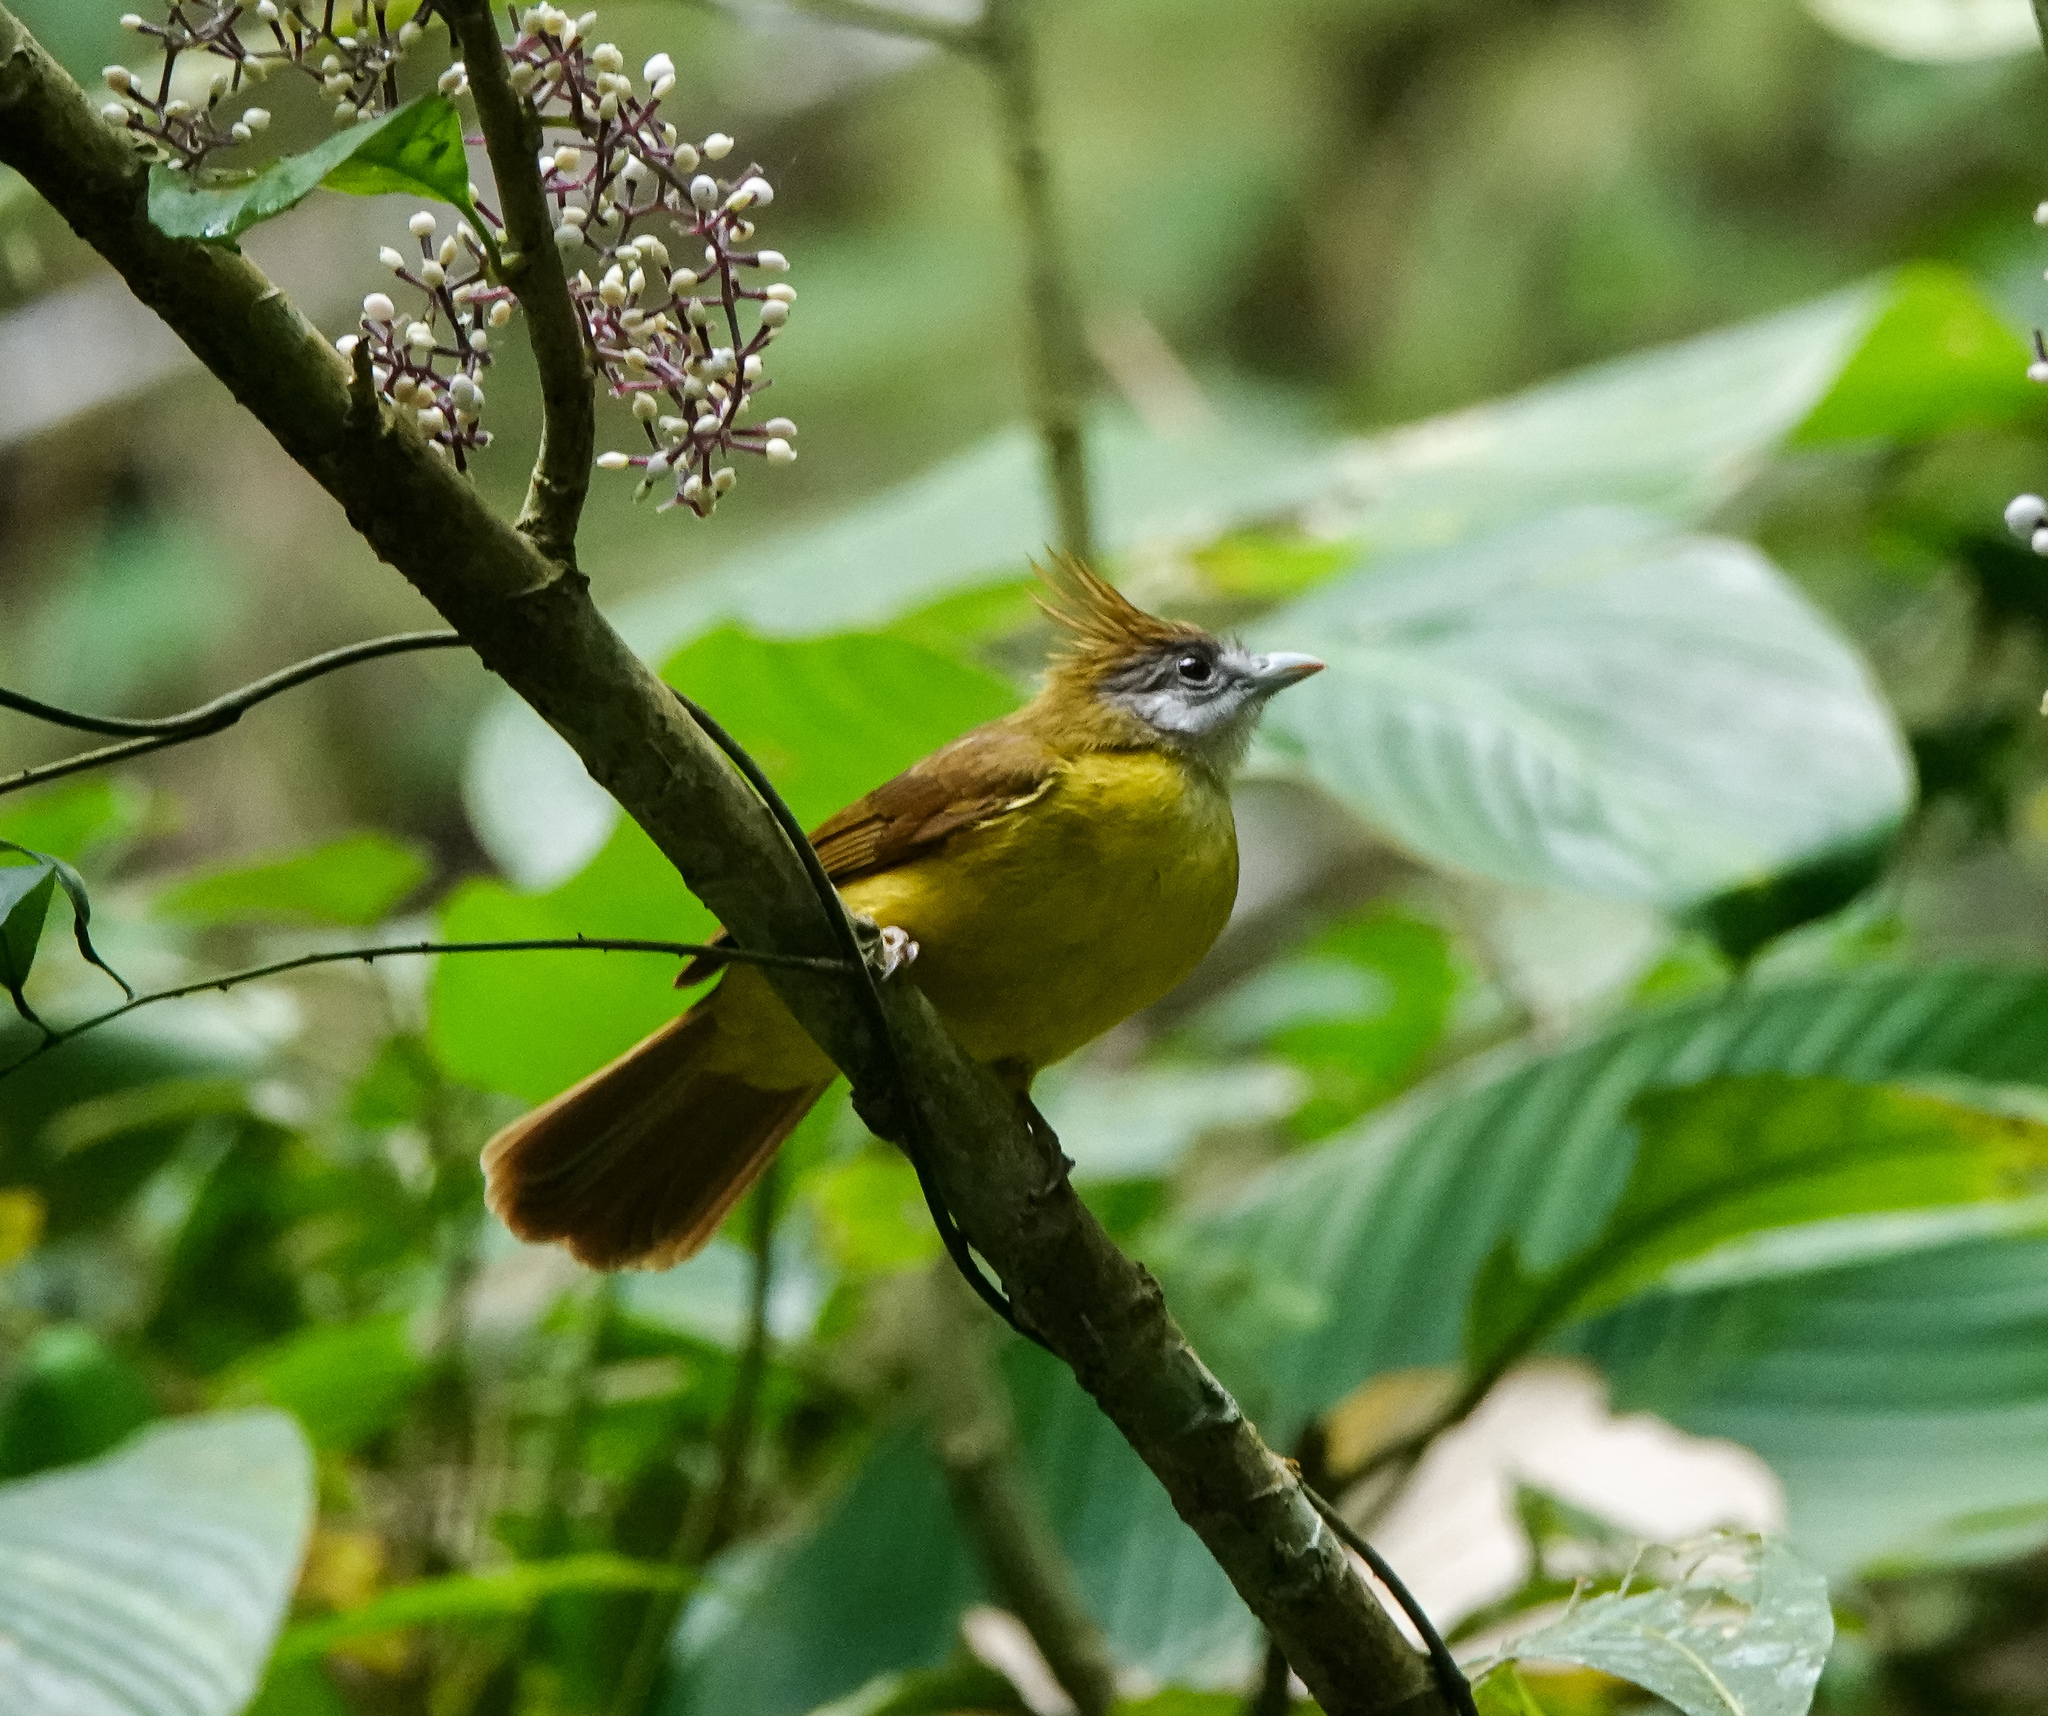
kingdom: Animalia
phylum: Chordata
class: Aves
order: Passeriformes
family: Pycnonotidae
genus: Alophoixus
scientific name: Alophoixus flaveolus
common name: White-throated bulbul
